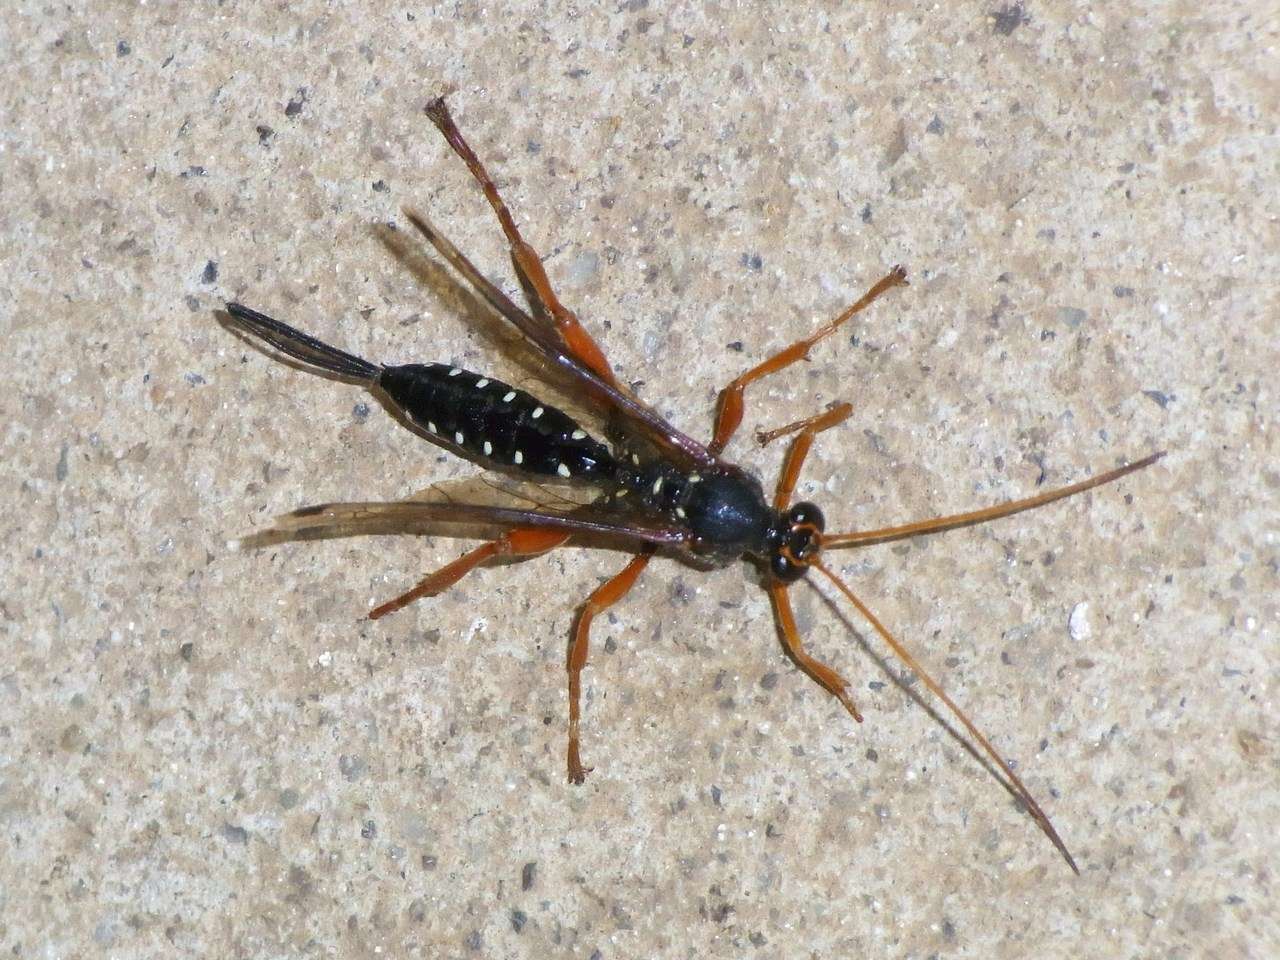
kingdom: Animalia
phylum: Arthropoda
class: Insecta
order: Hymenoptera
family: Ichneumonidae
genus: Echthromorpha
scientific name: Echthromorpha intricatoria
